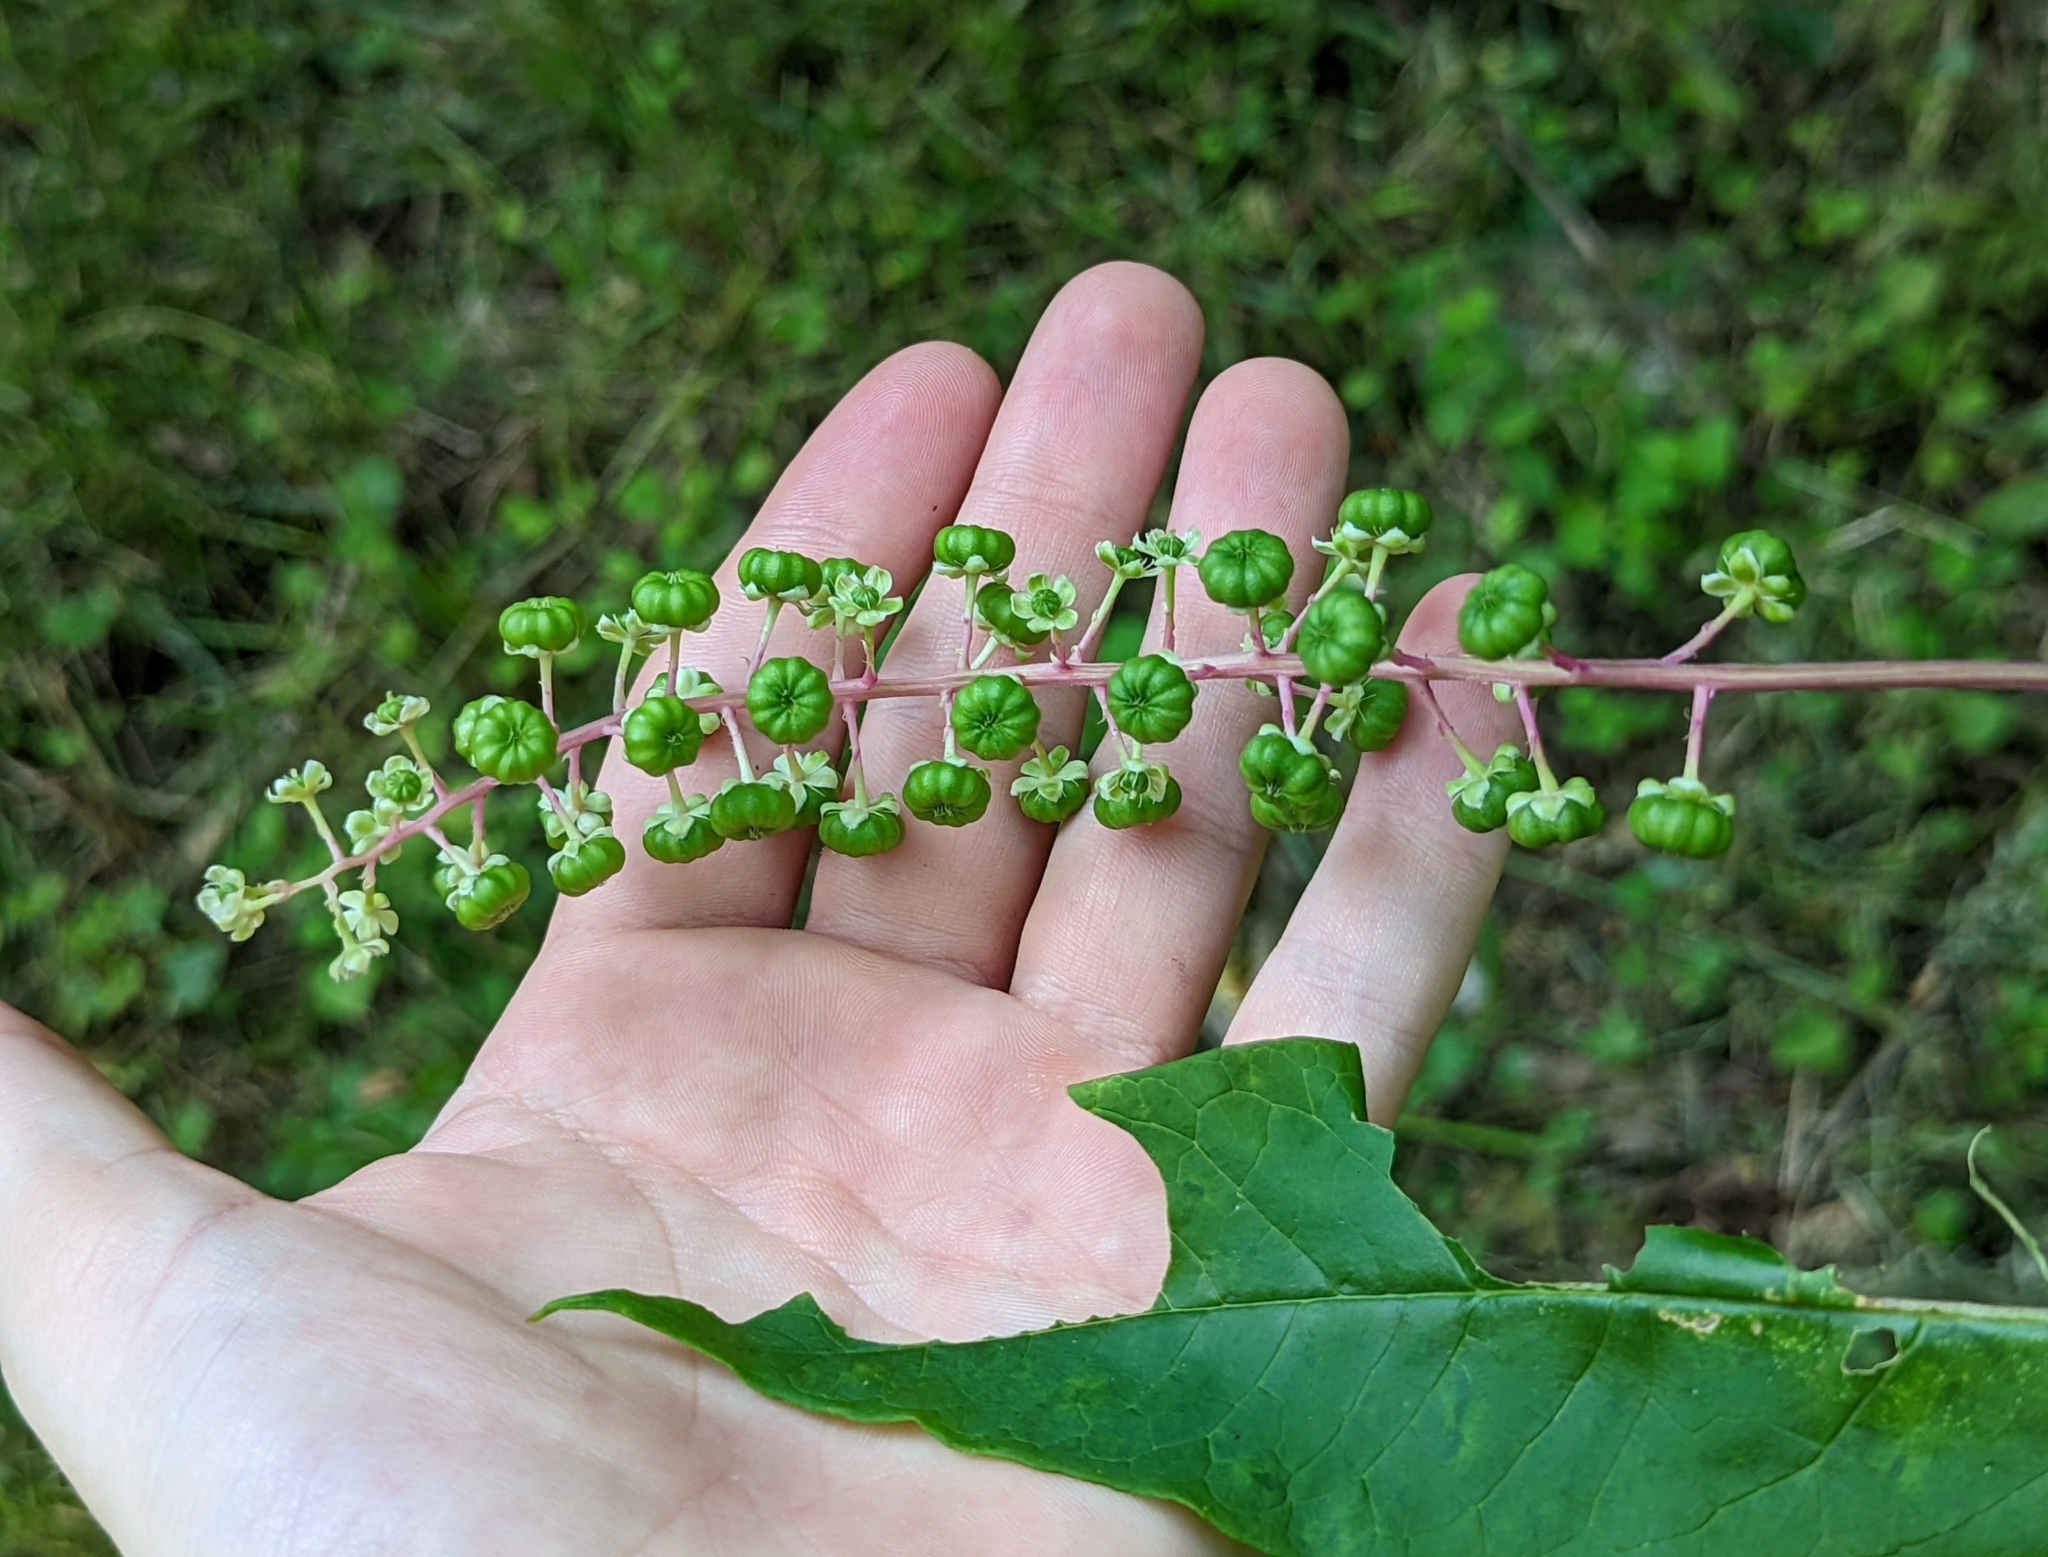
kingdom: Plantae
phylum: Tracheophyta
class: Magnoliopsida
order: Caryophyllales
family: Phytolaccaceae
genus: Phytolacca
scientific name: Phytolacca americana
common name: American pokeweed
